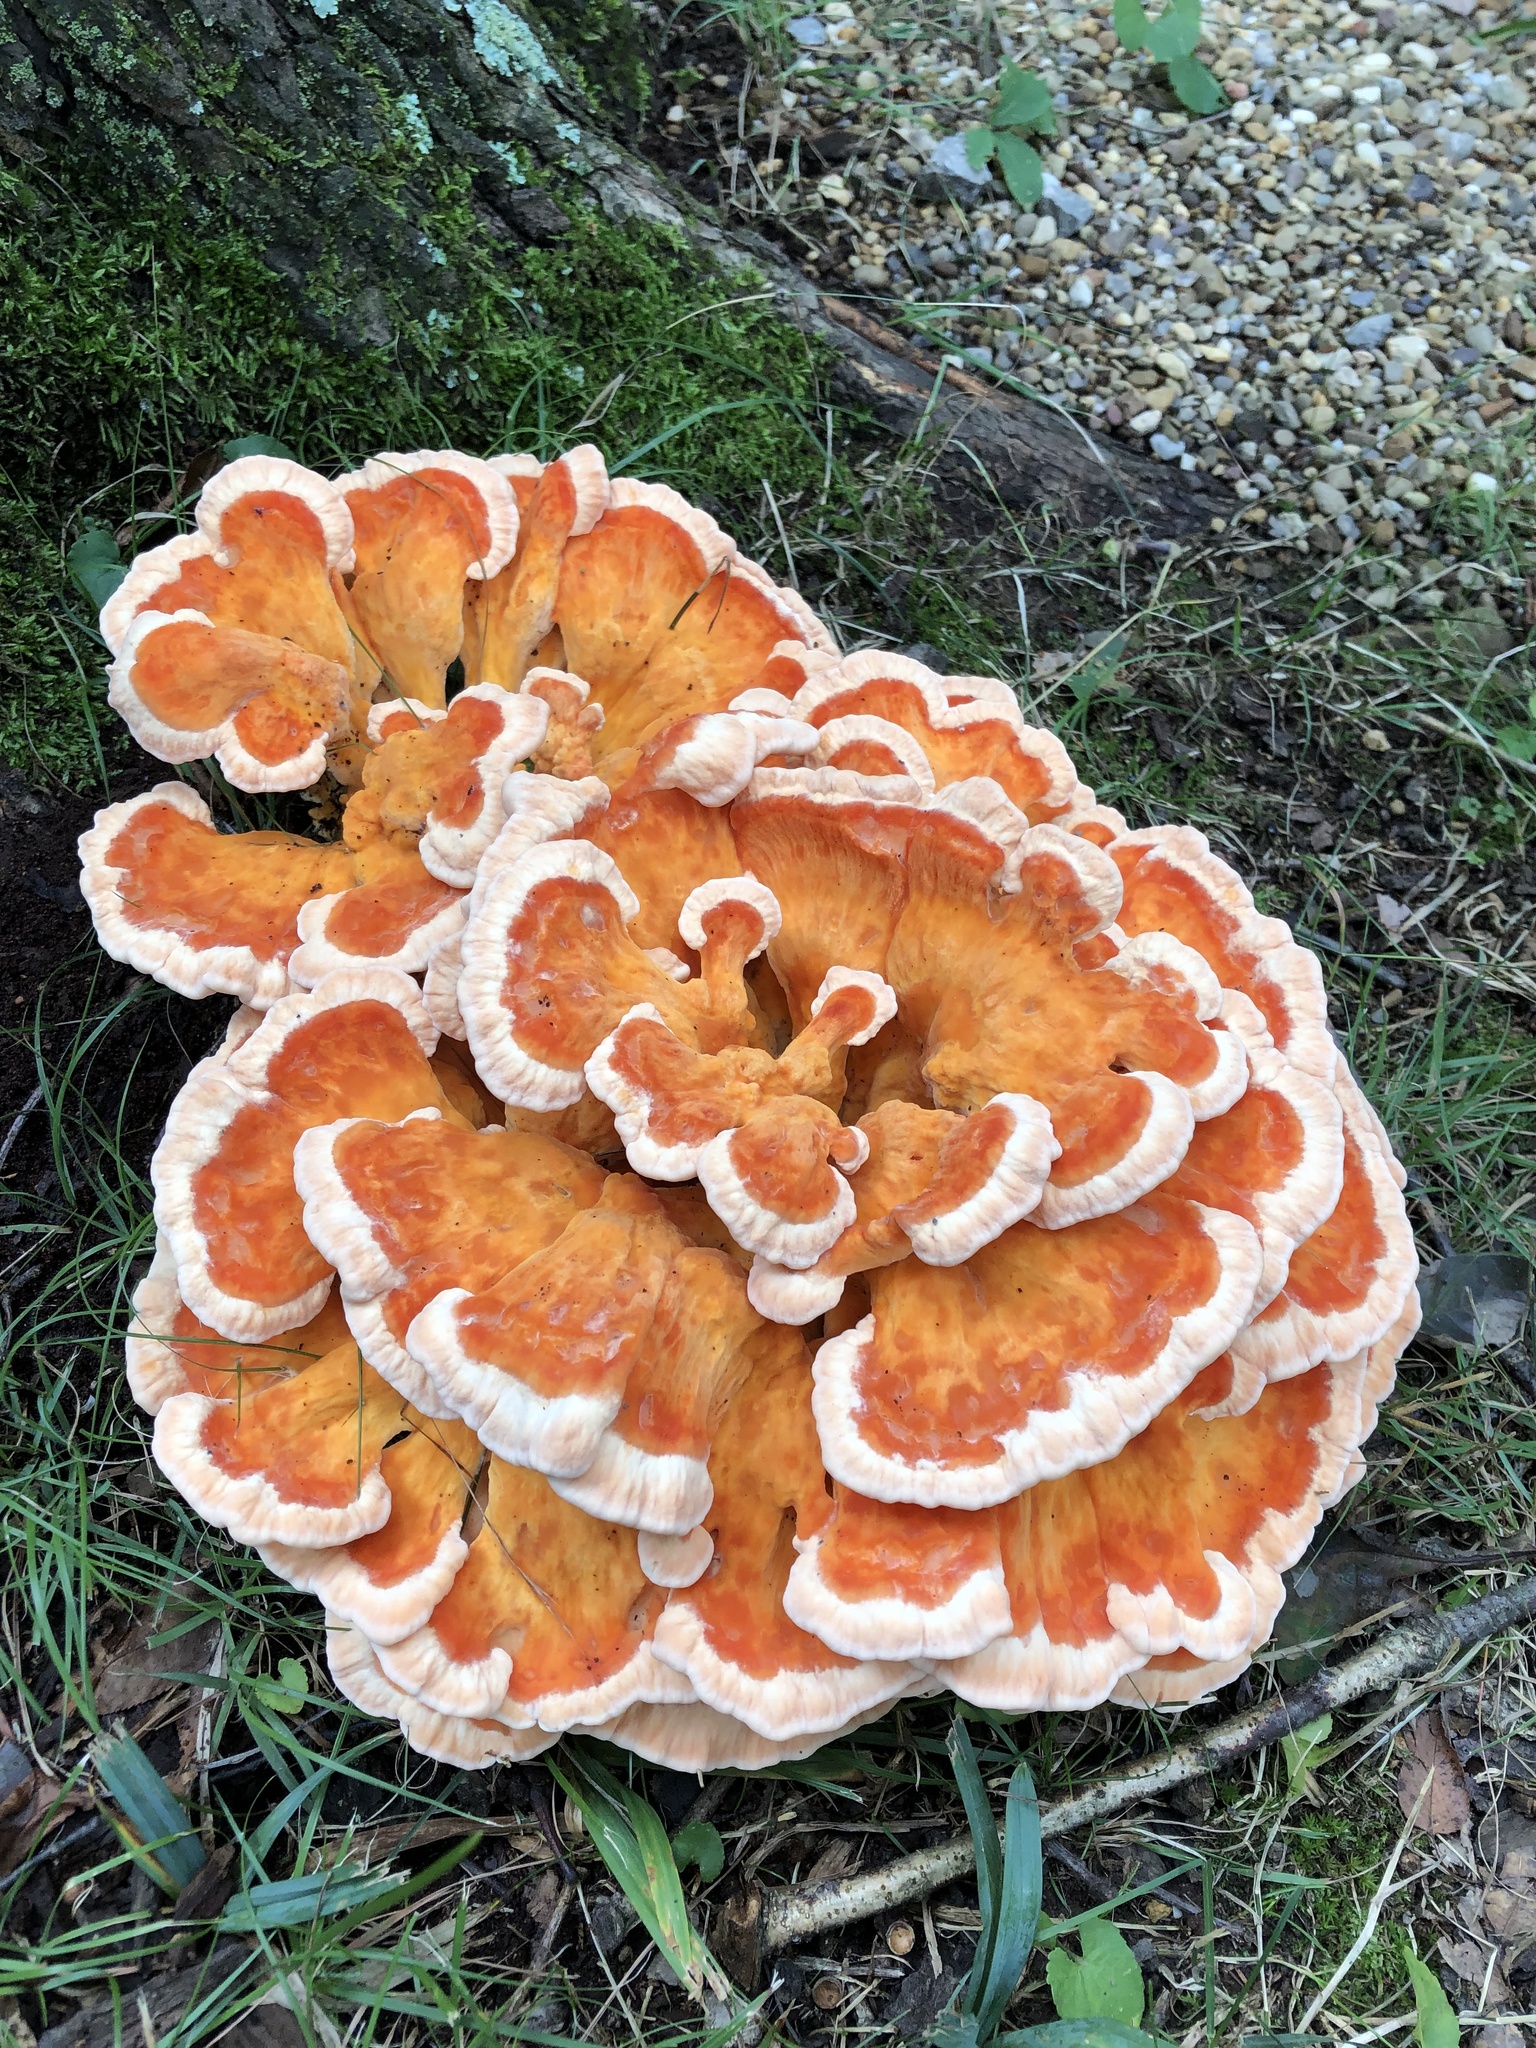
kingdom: Fungi
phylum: Basidiomycota
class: Agaricomycetes
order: Polyporales
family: Laetiporaceae
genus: Laetiporus
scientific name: Laetiporus sulphureus
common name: Chicken of the woods
